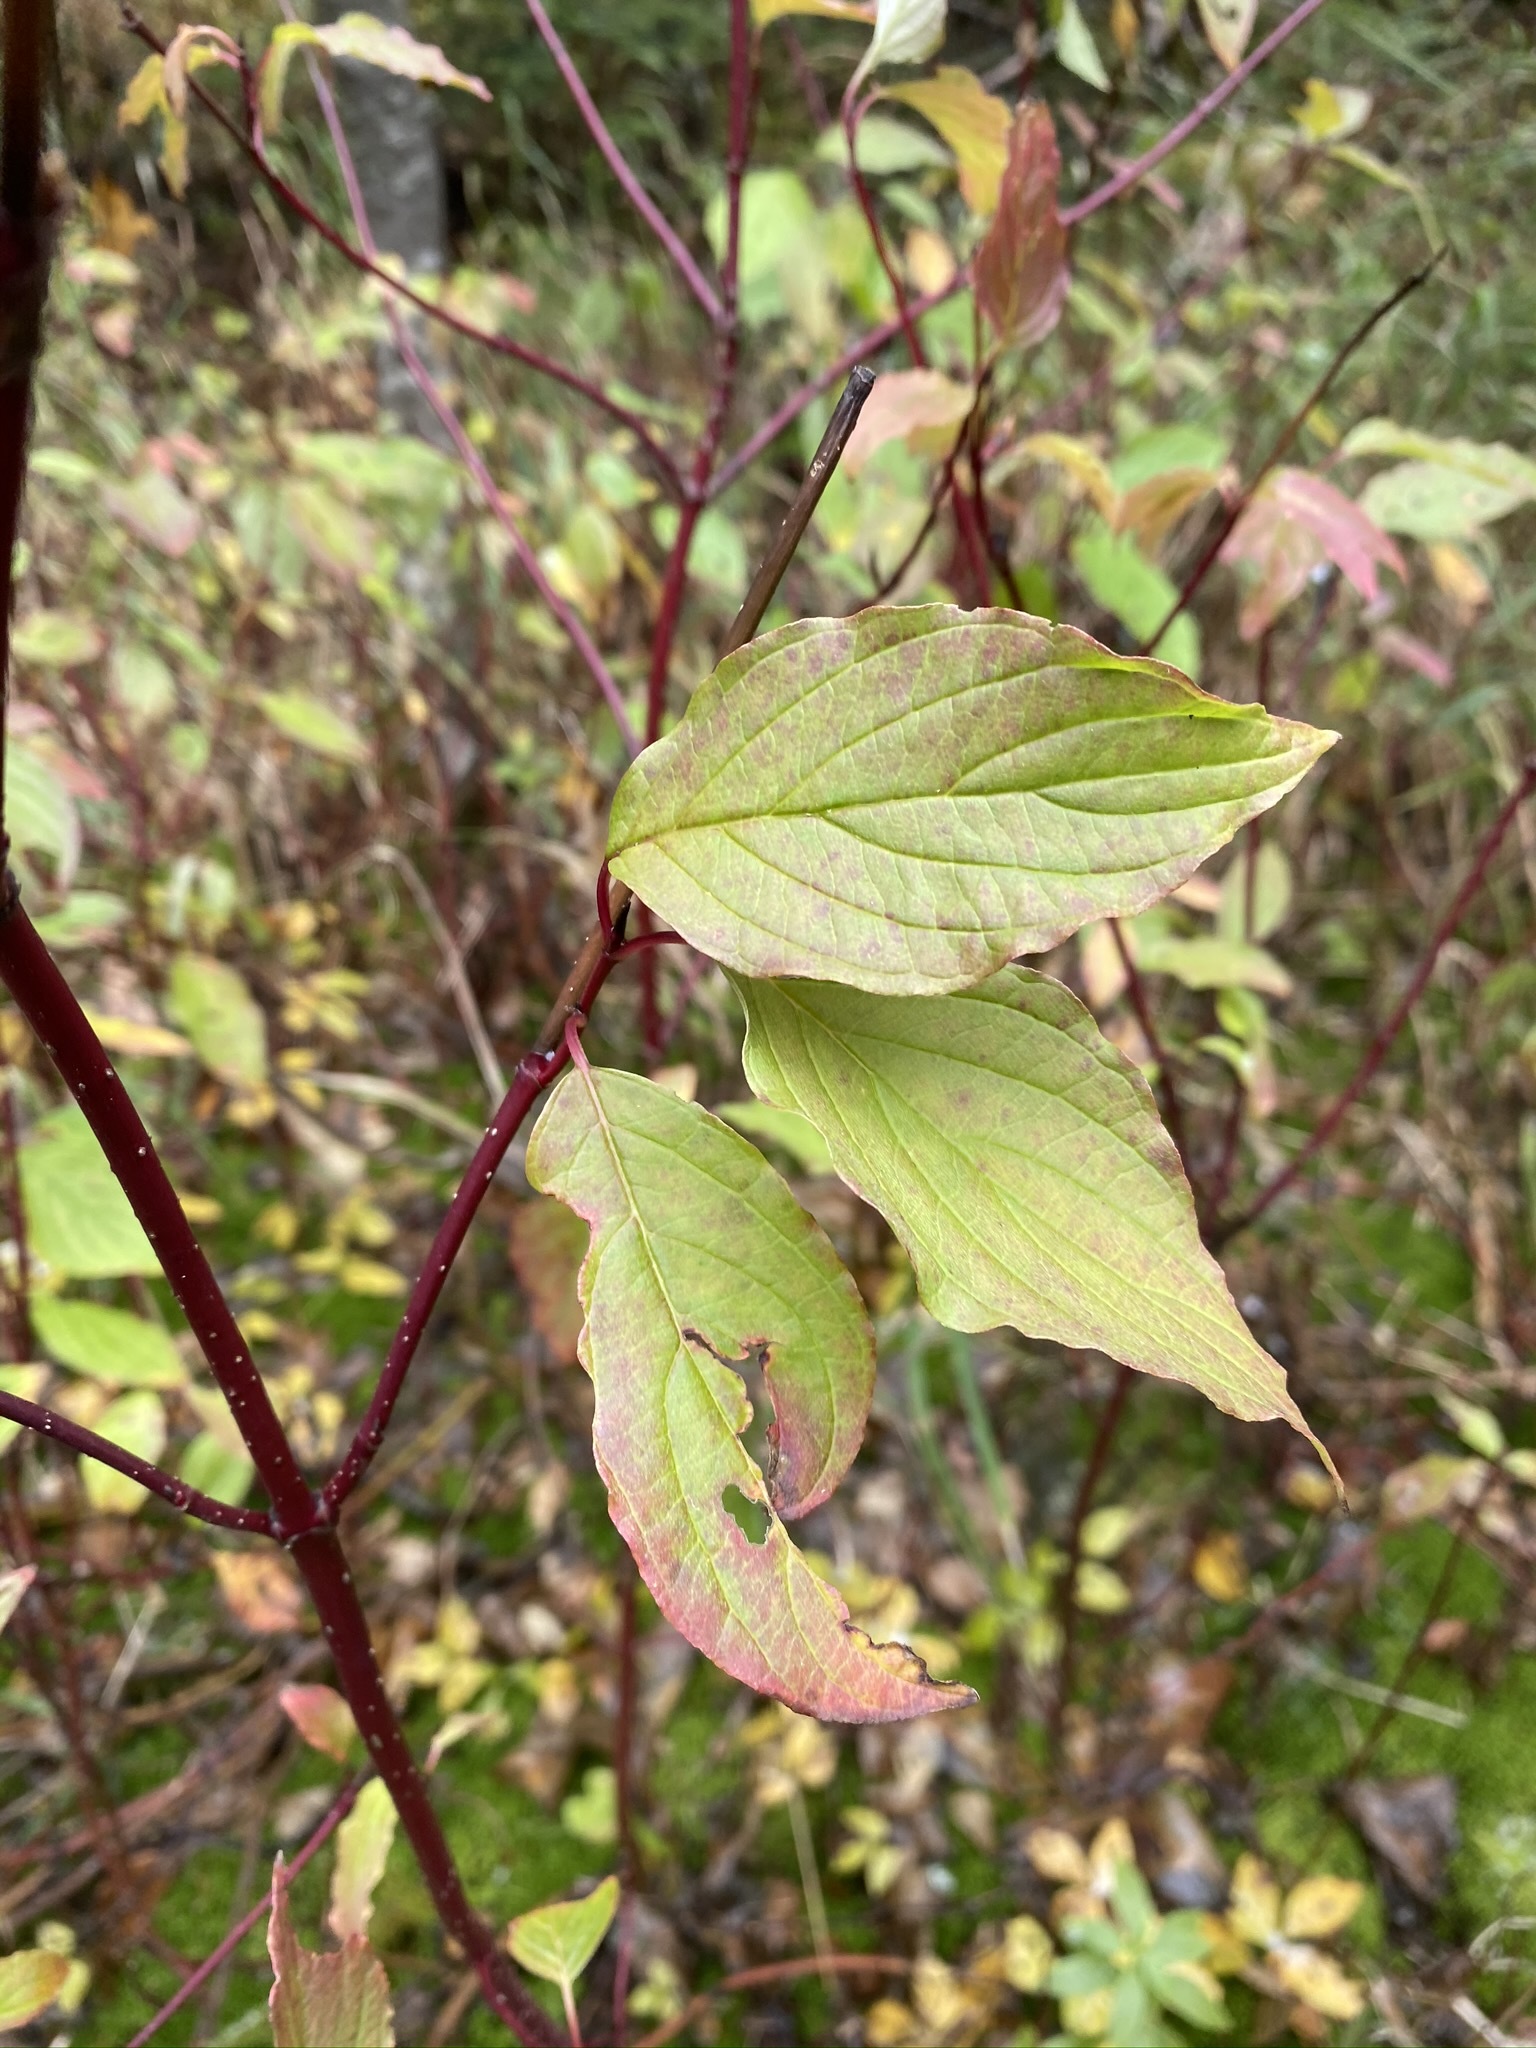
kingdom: Plantae
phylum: Tracheophyta
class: Magnoliopsida
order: Cornales
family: Cornaceae
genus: Cornus
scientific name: Cornus sericea
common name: Red-osier dogwood
